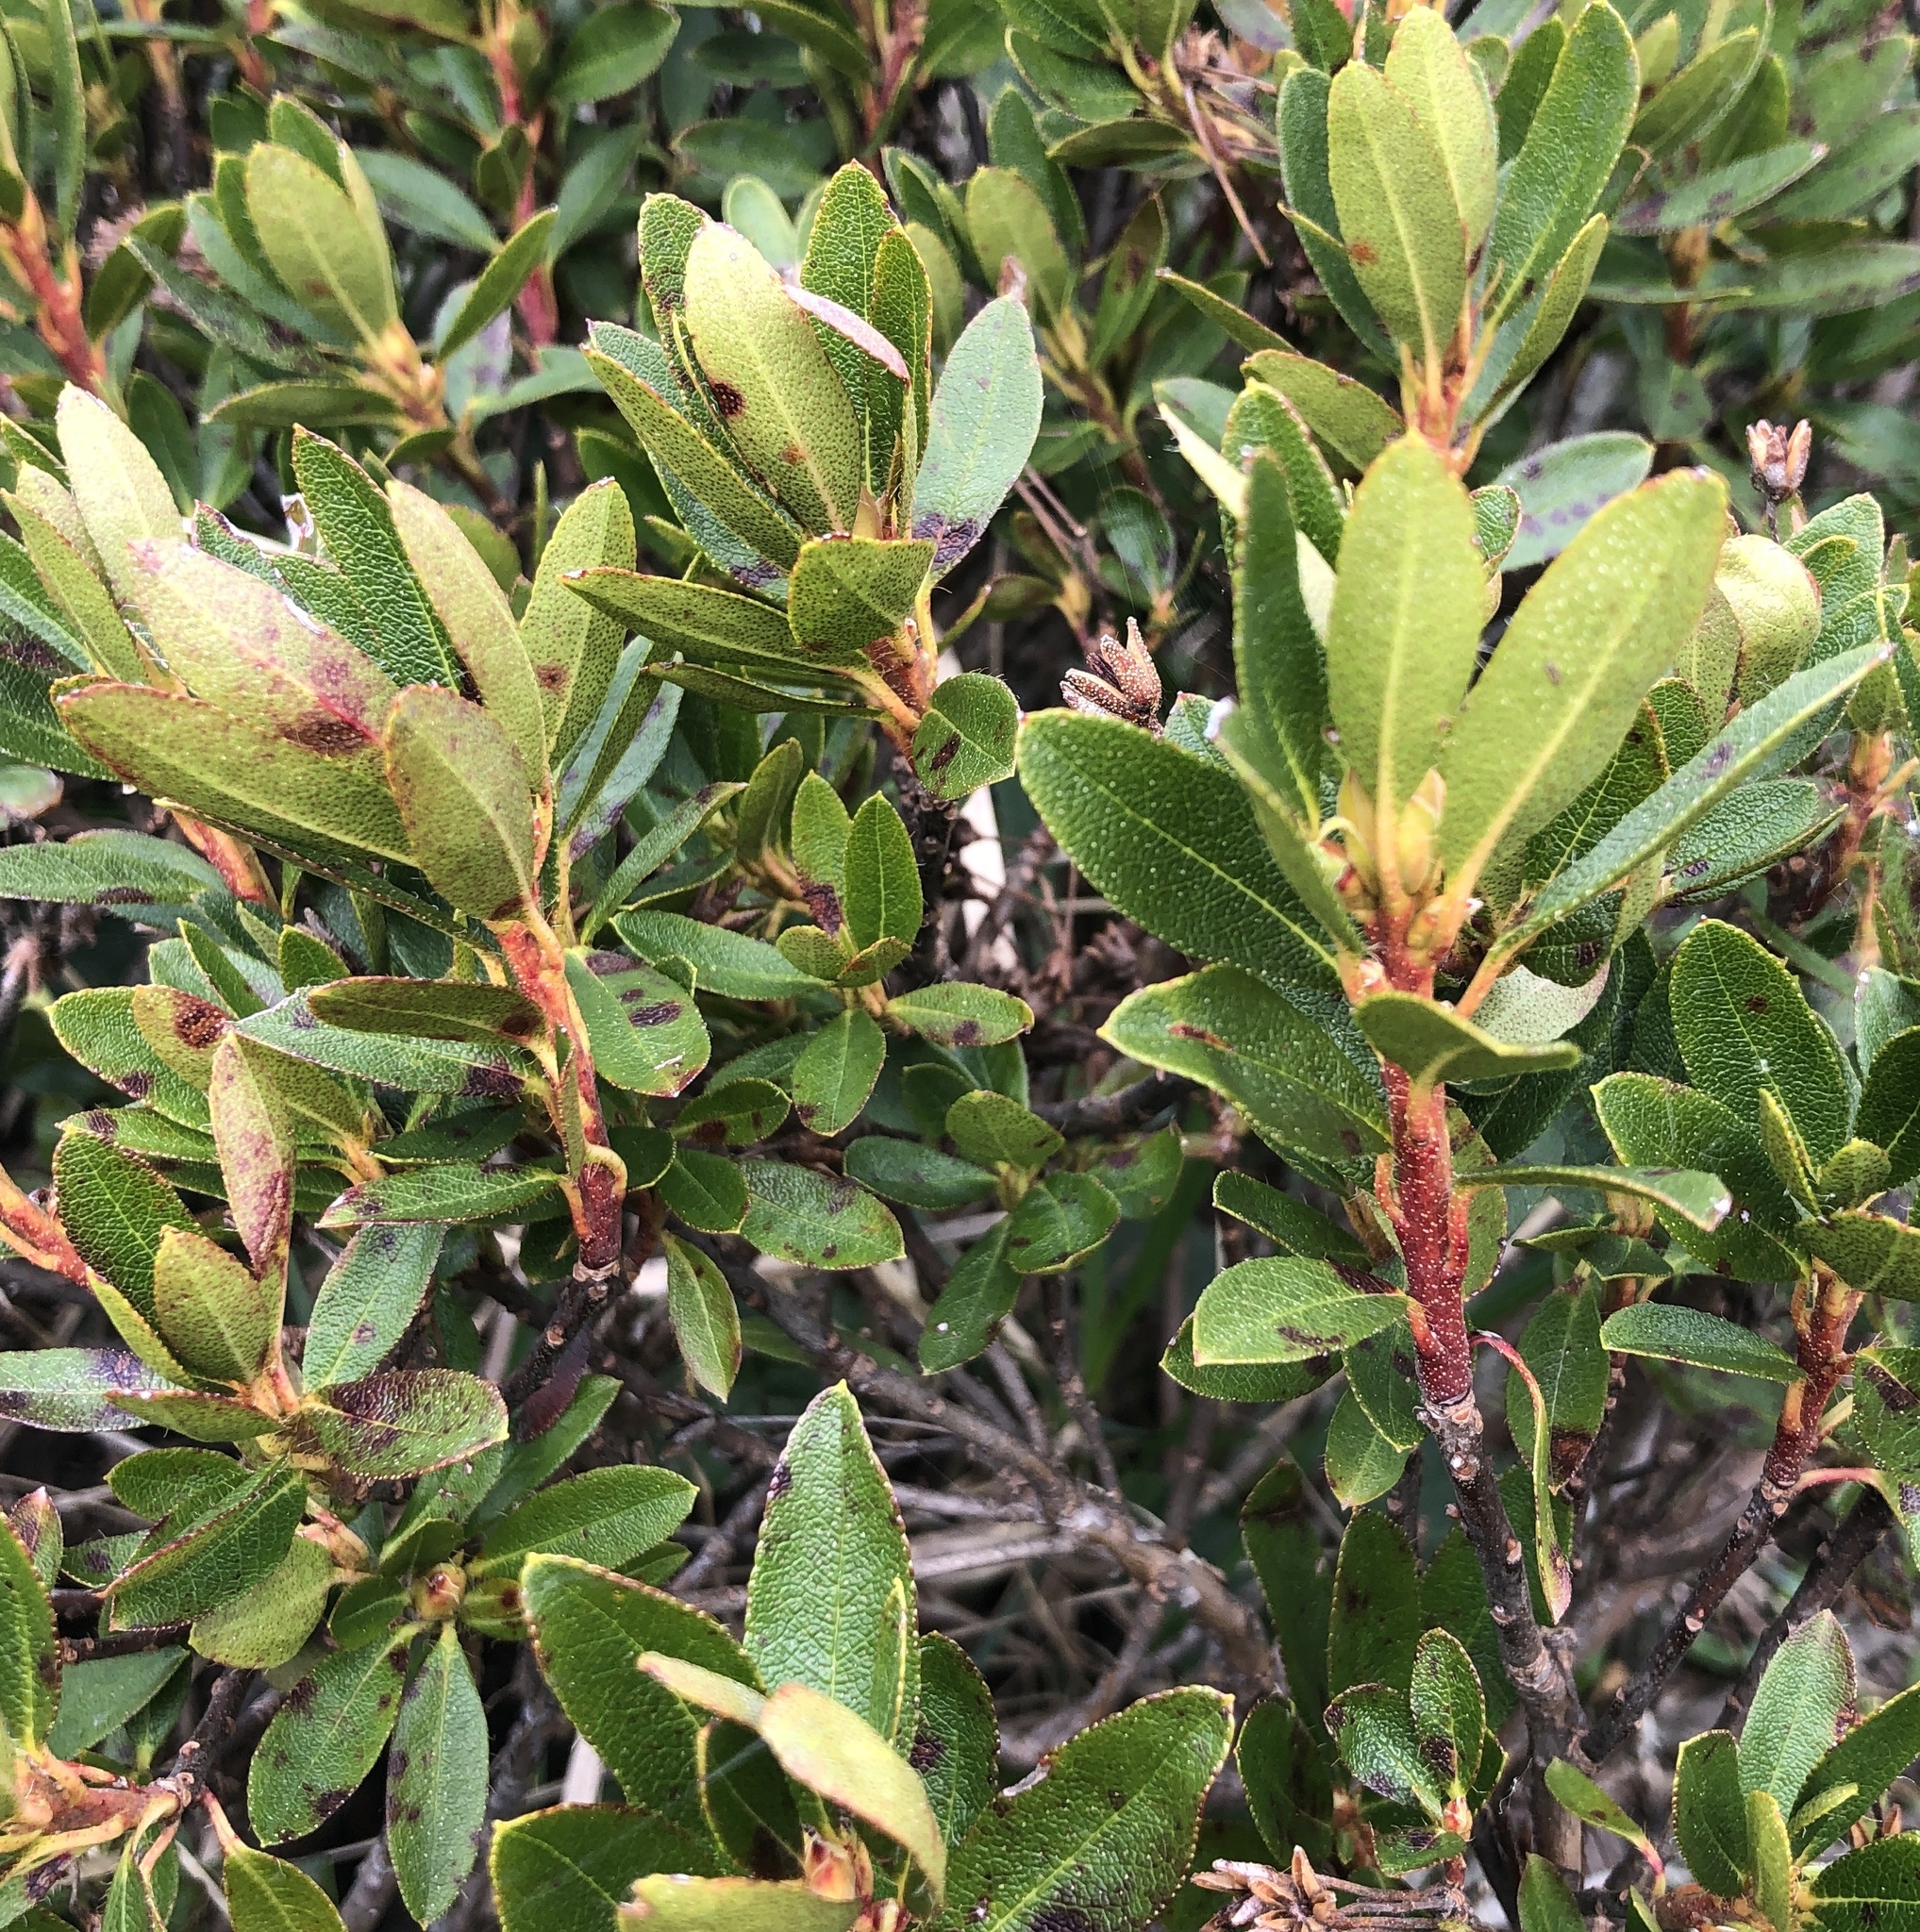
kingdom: Plantae
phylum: Tracheophyta
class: Magnoliopsida
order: Ericales
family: Ericaceae
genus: Rhododendron
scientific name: Rhododendron hirsutum
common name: Hairy alpenrose
